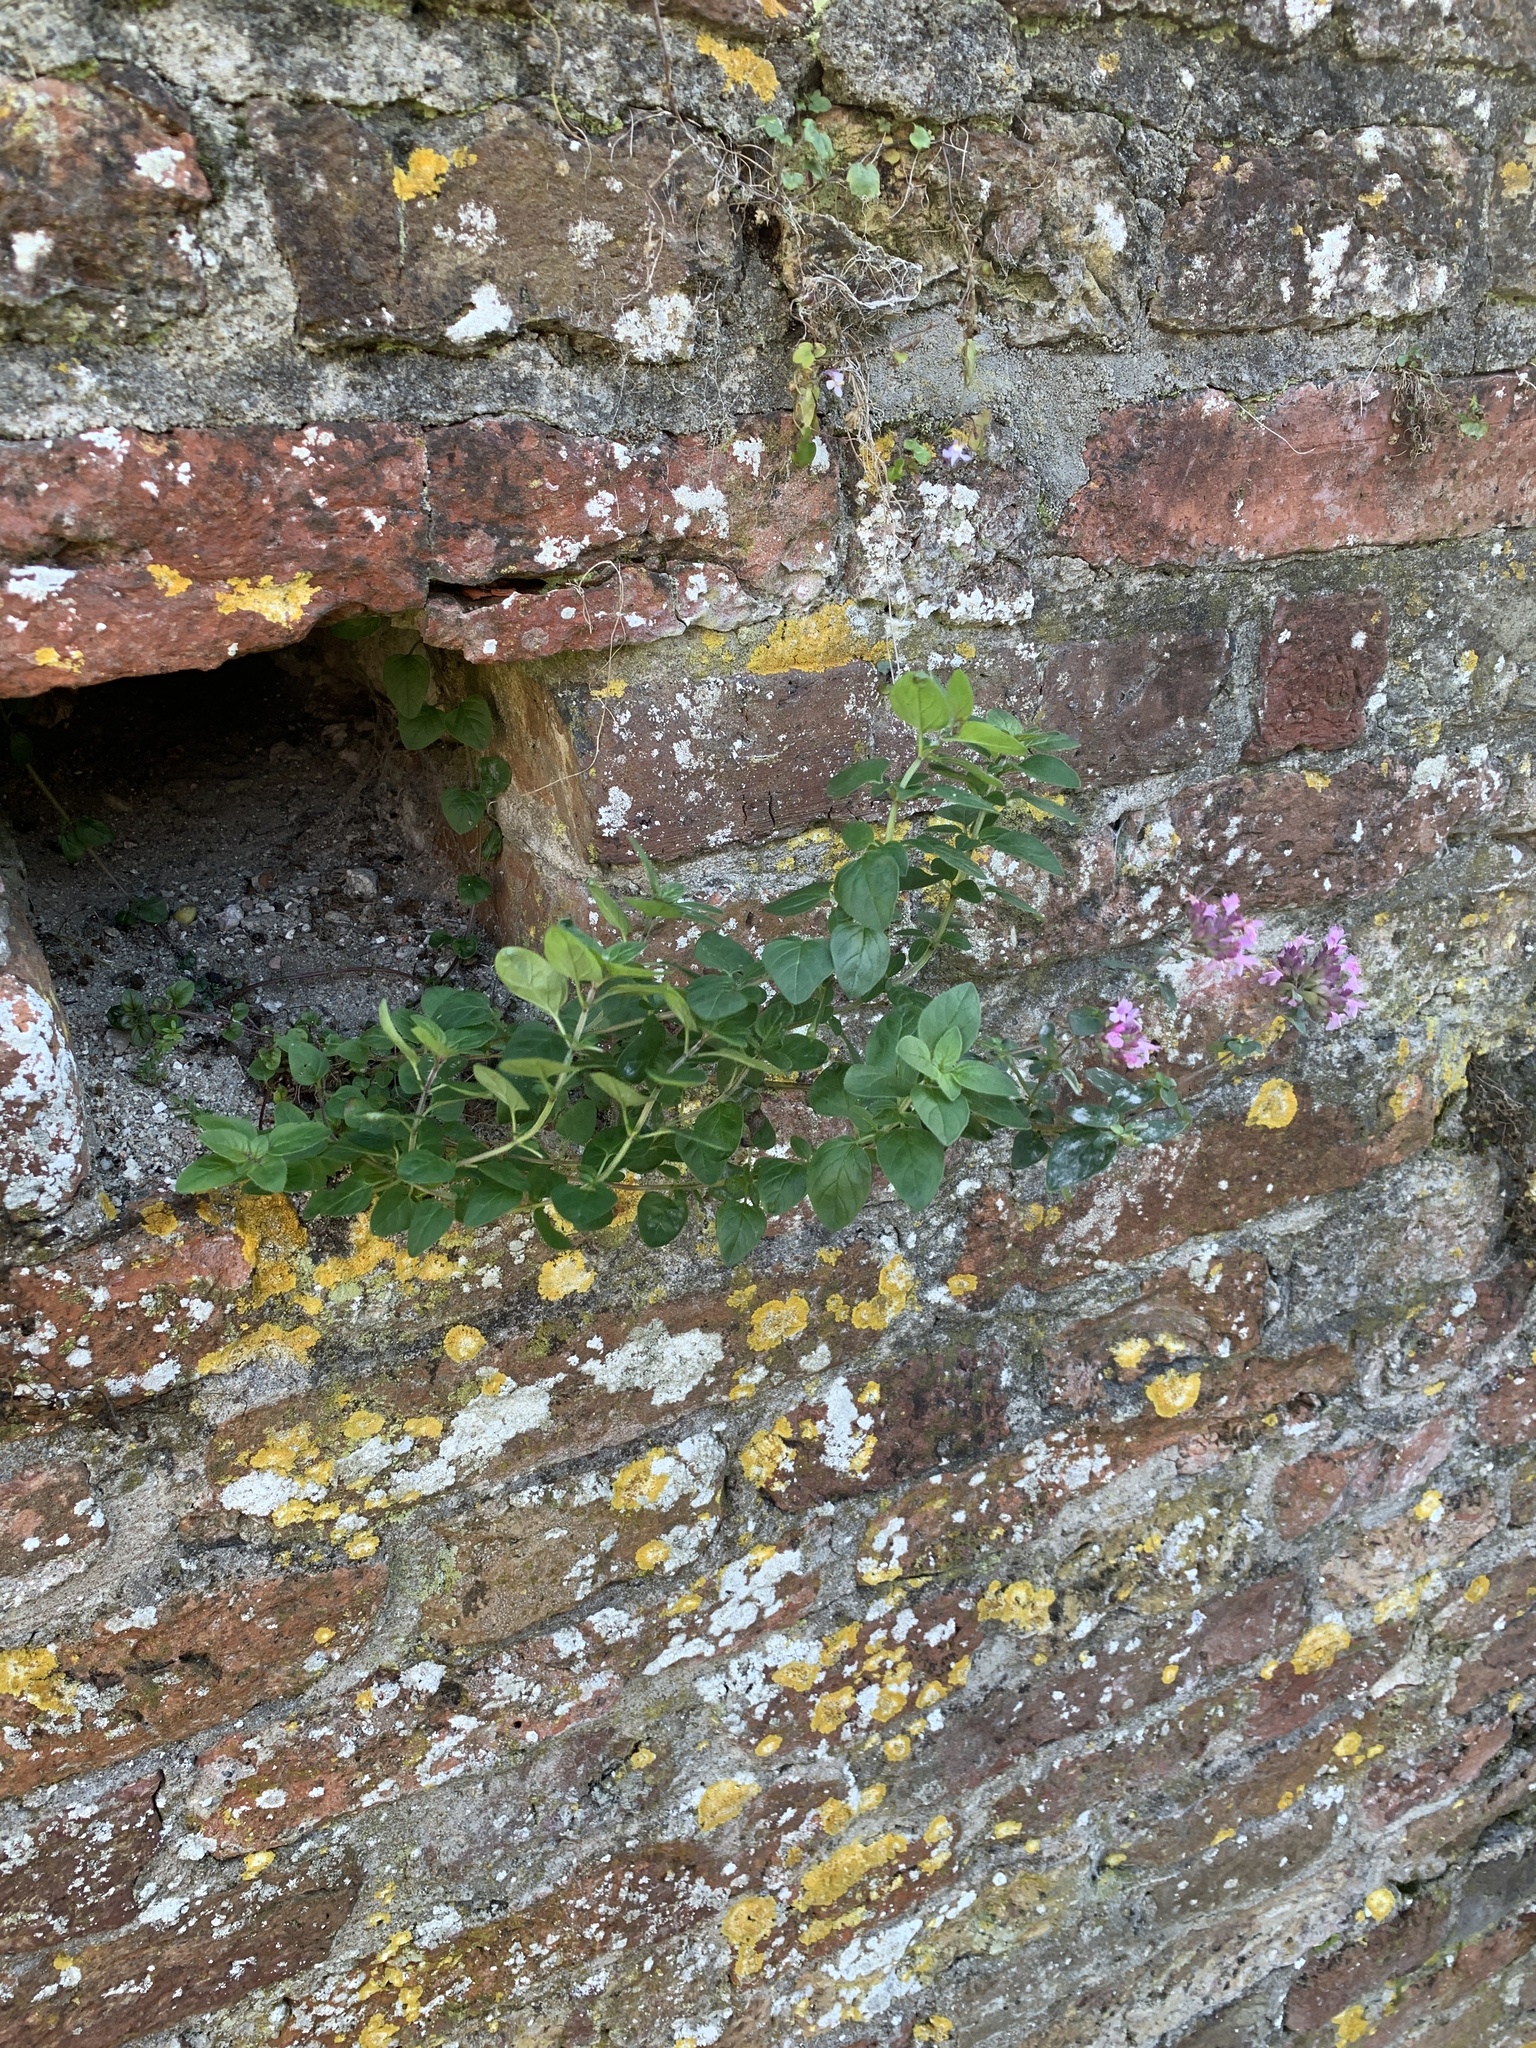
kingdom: Plantae
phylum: Tracheophyta
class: Magnoliopsida
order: Lamiales
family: Lamiaceae
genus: Origanum
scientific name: Origanum vulgare
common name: Wild marjoram
